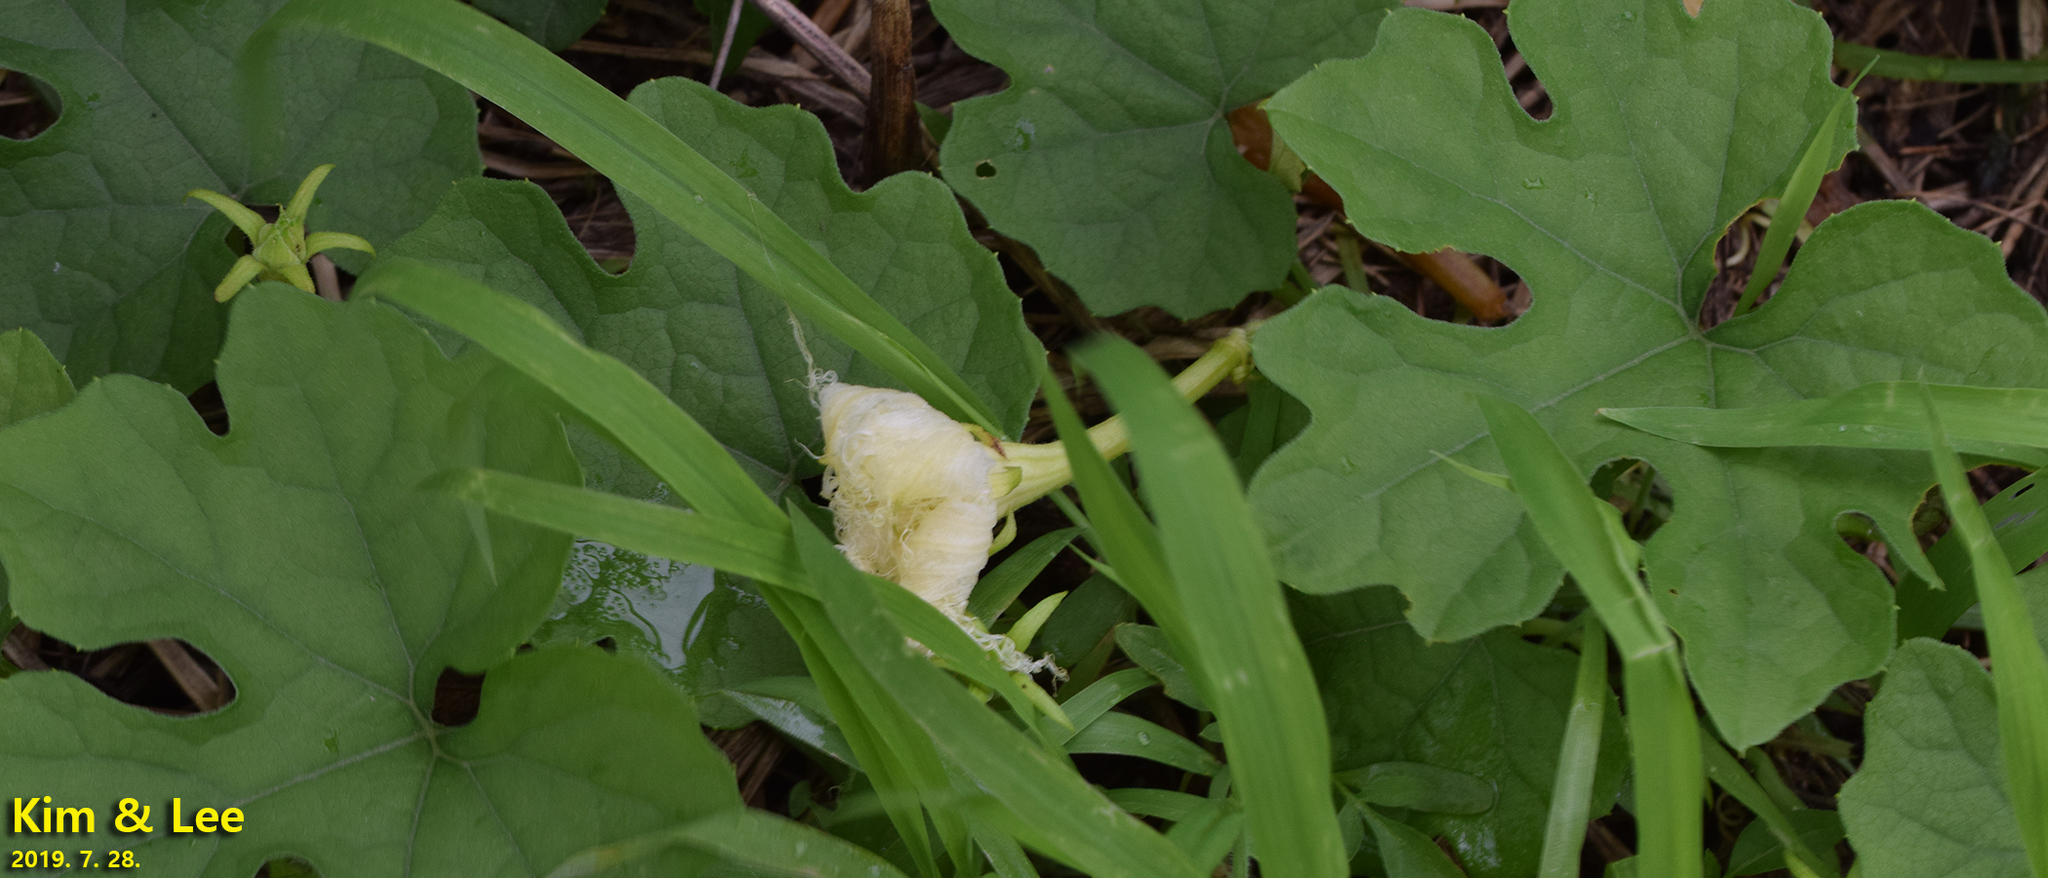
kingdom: Plantae
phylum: Tracheophyta
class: Magnoliopsida
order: Cucurbitales
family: Cucurbitaceae
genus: Trichosanthes
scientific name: Trichosanthes kirilowii
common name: Chinese-cucumber
